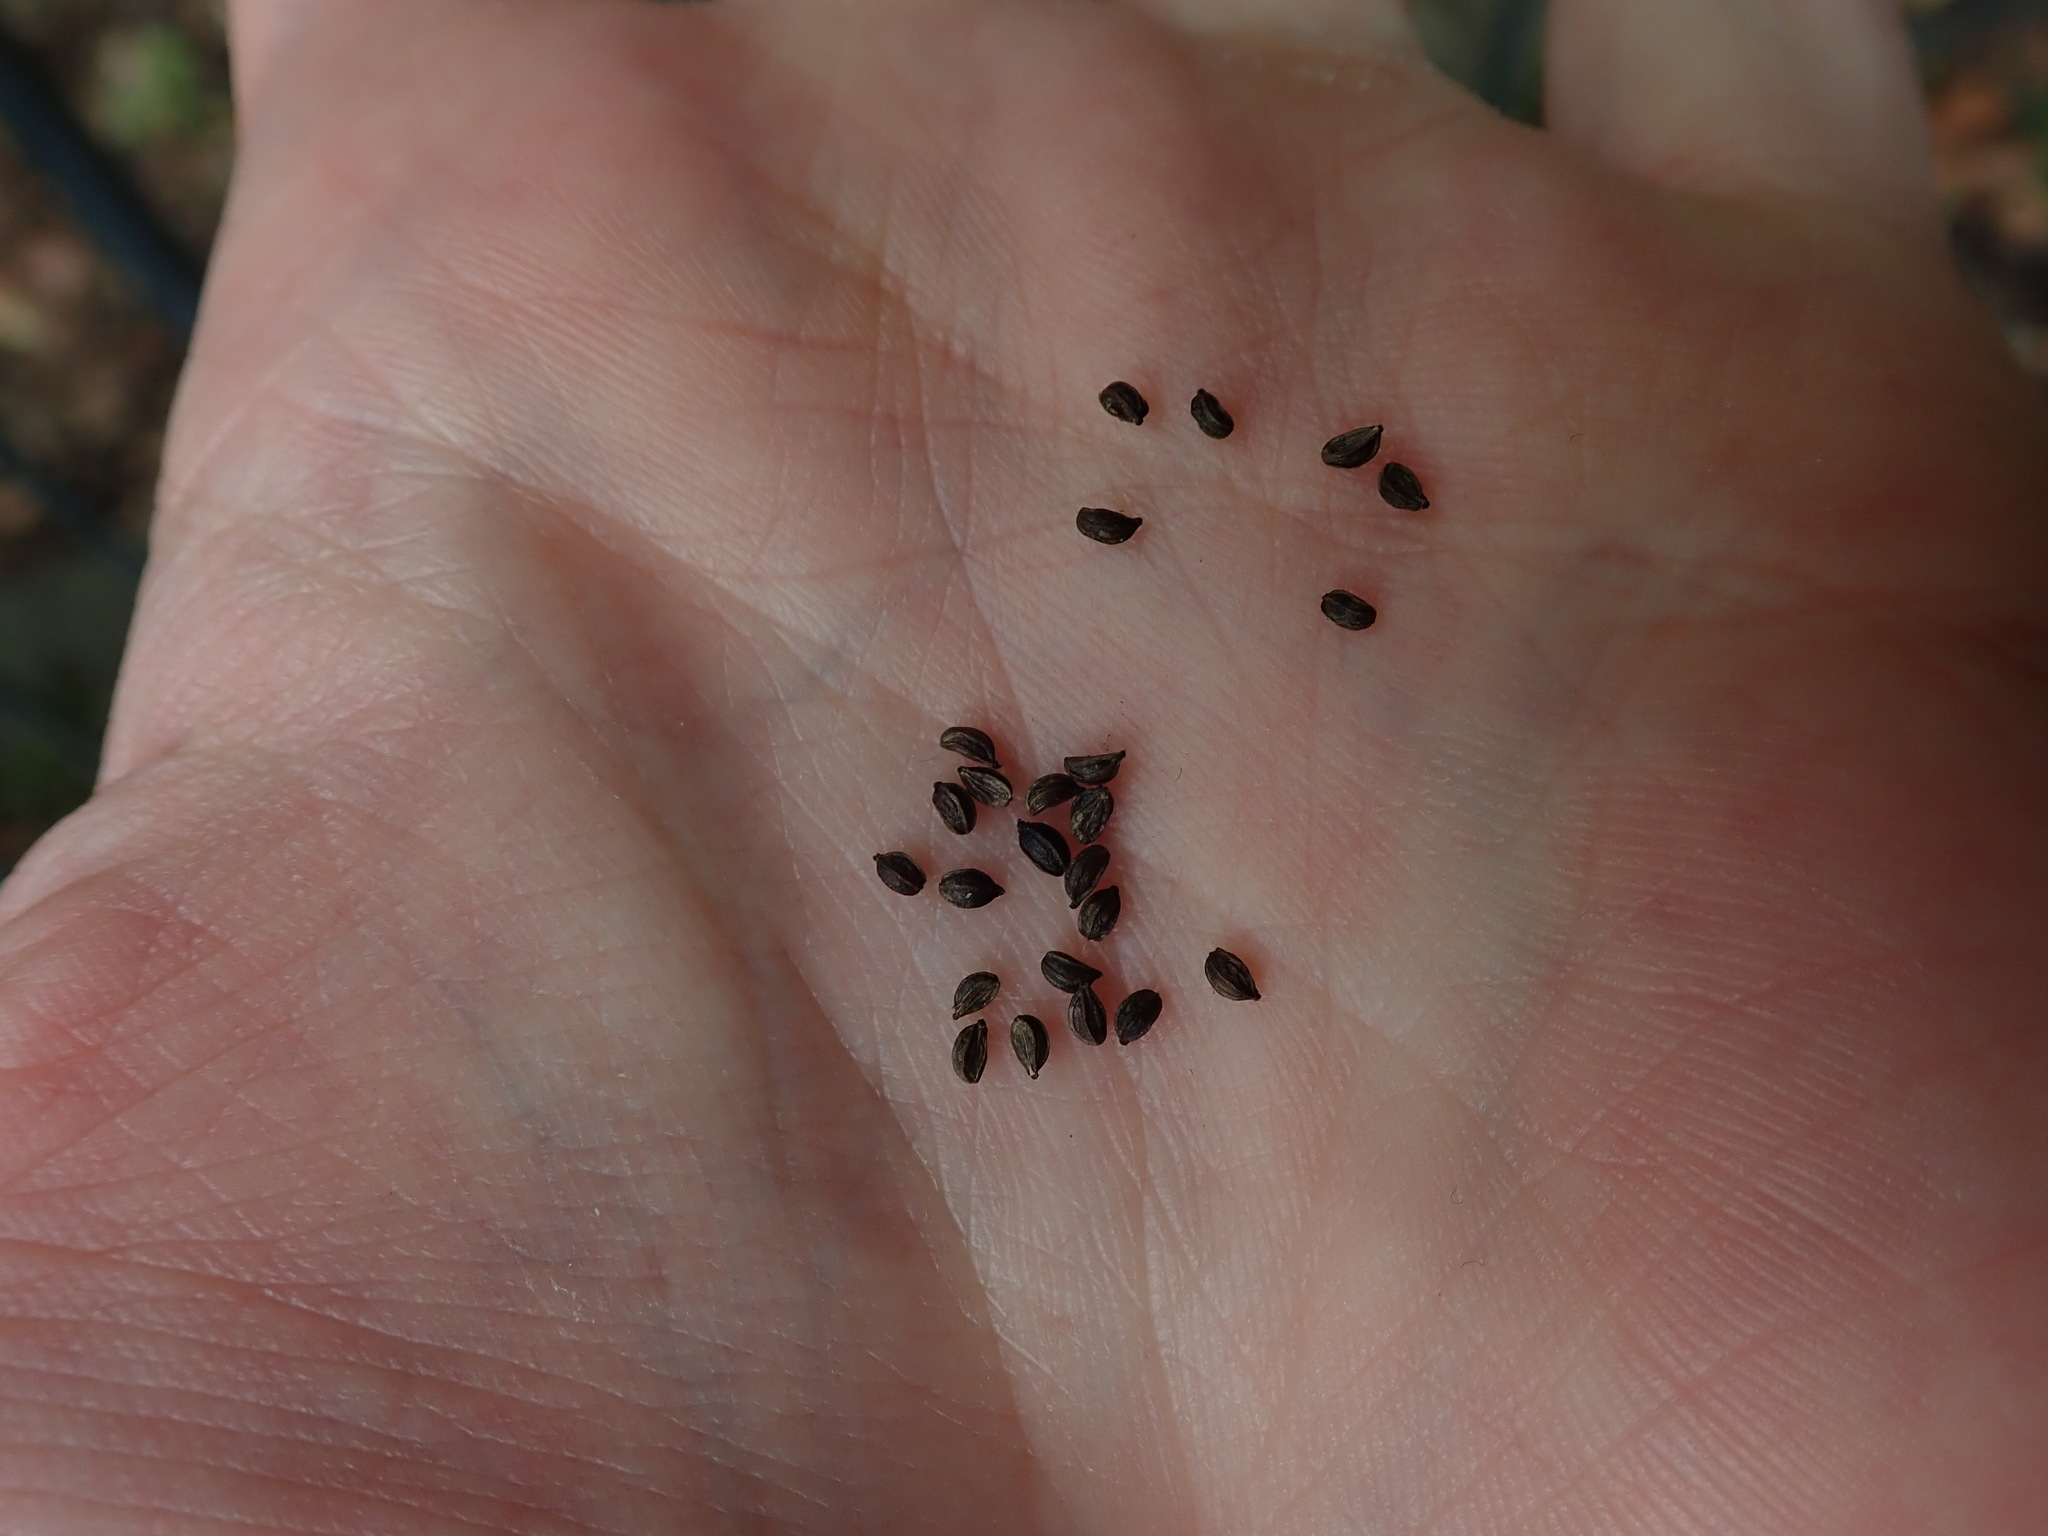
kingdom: Plantae
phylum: Tracheophyta
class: Magnoliopsida
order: Apiales
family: Apiaceae
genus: Sison
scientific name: Sison amomum
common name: Stone-parsley
